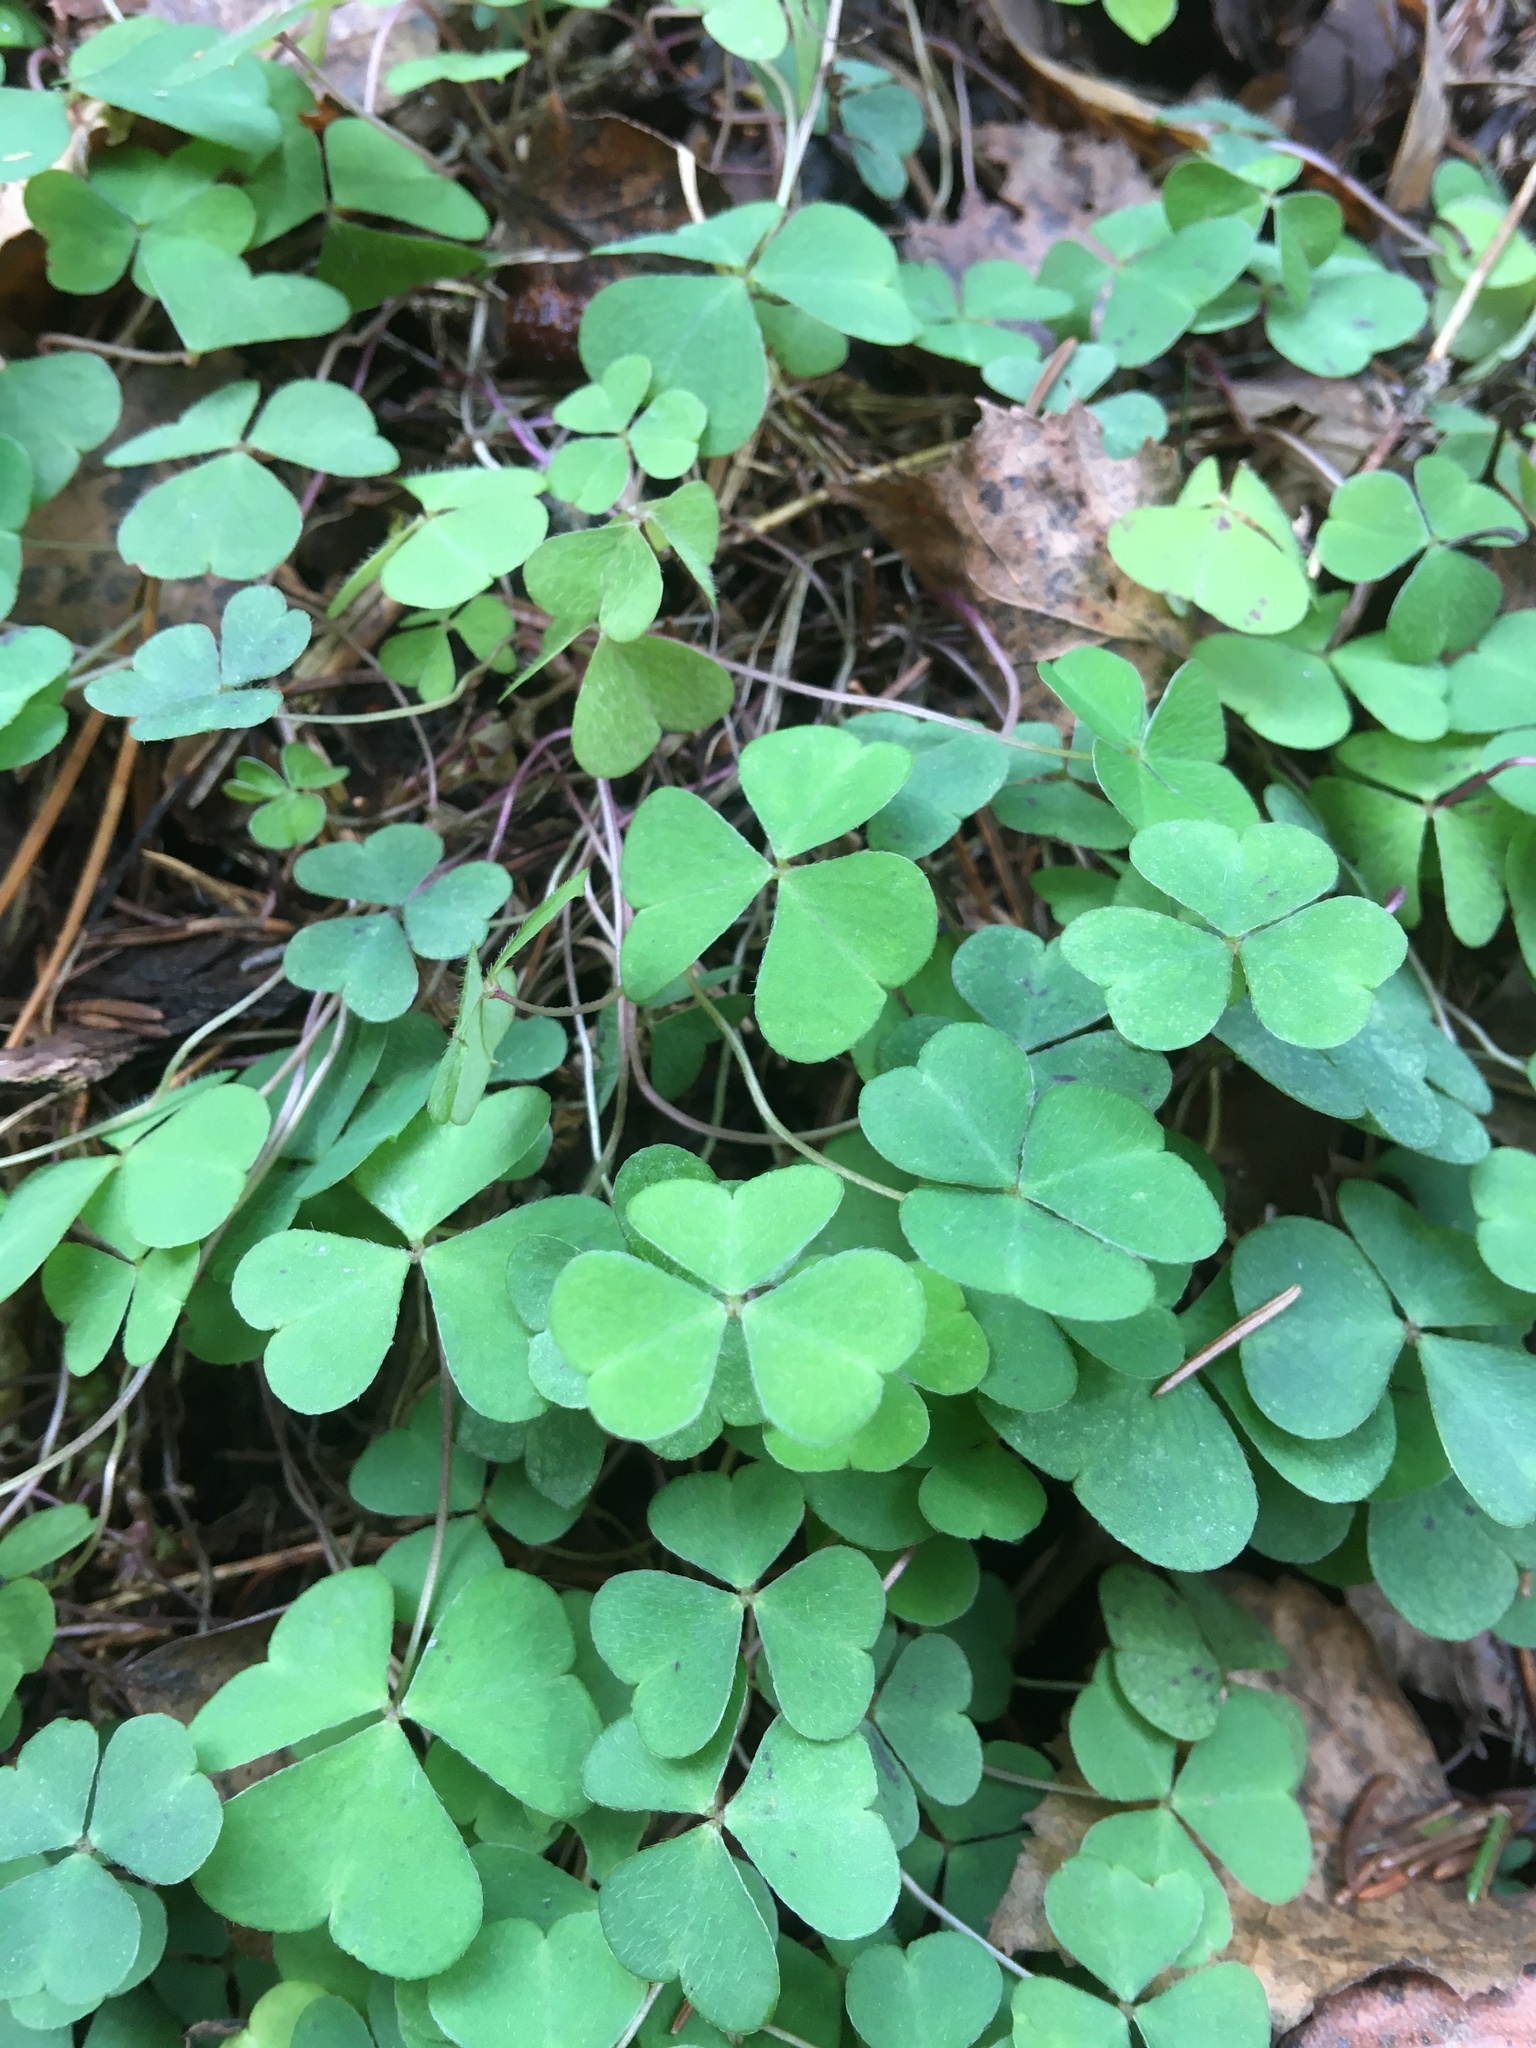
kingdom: Plantae
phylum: Tracheophyta
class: Magnoliopsida
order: Oxalidales
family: Oxalidaceae
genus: Oxalis
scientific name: Oxalis acetosella
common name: Wood-sorrel
